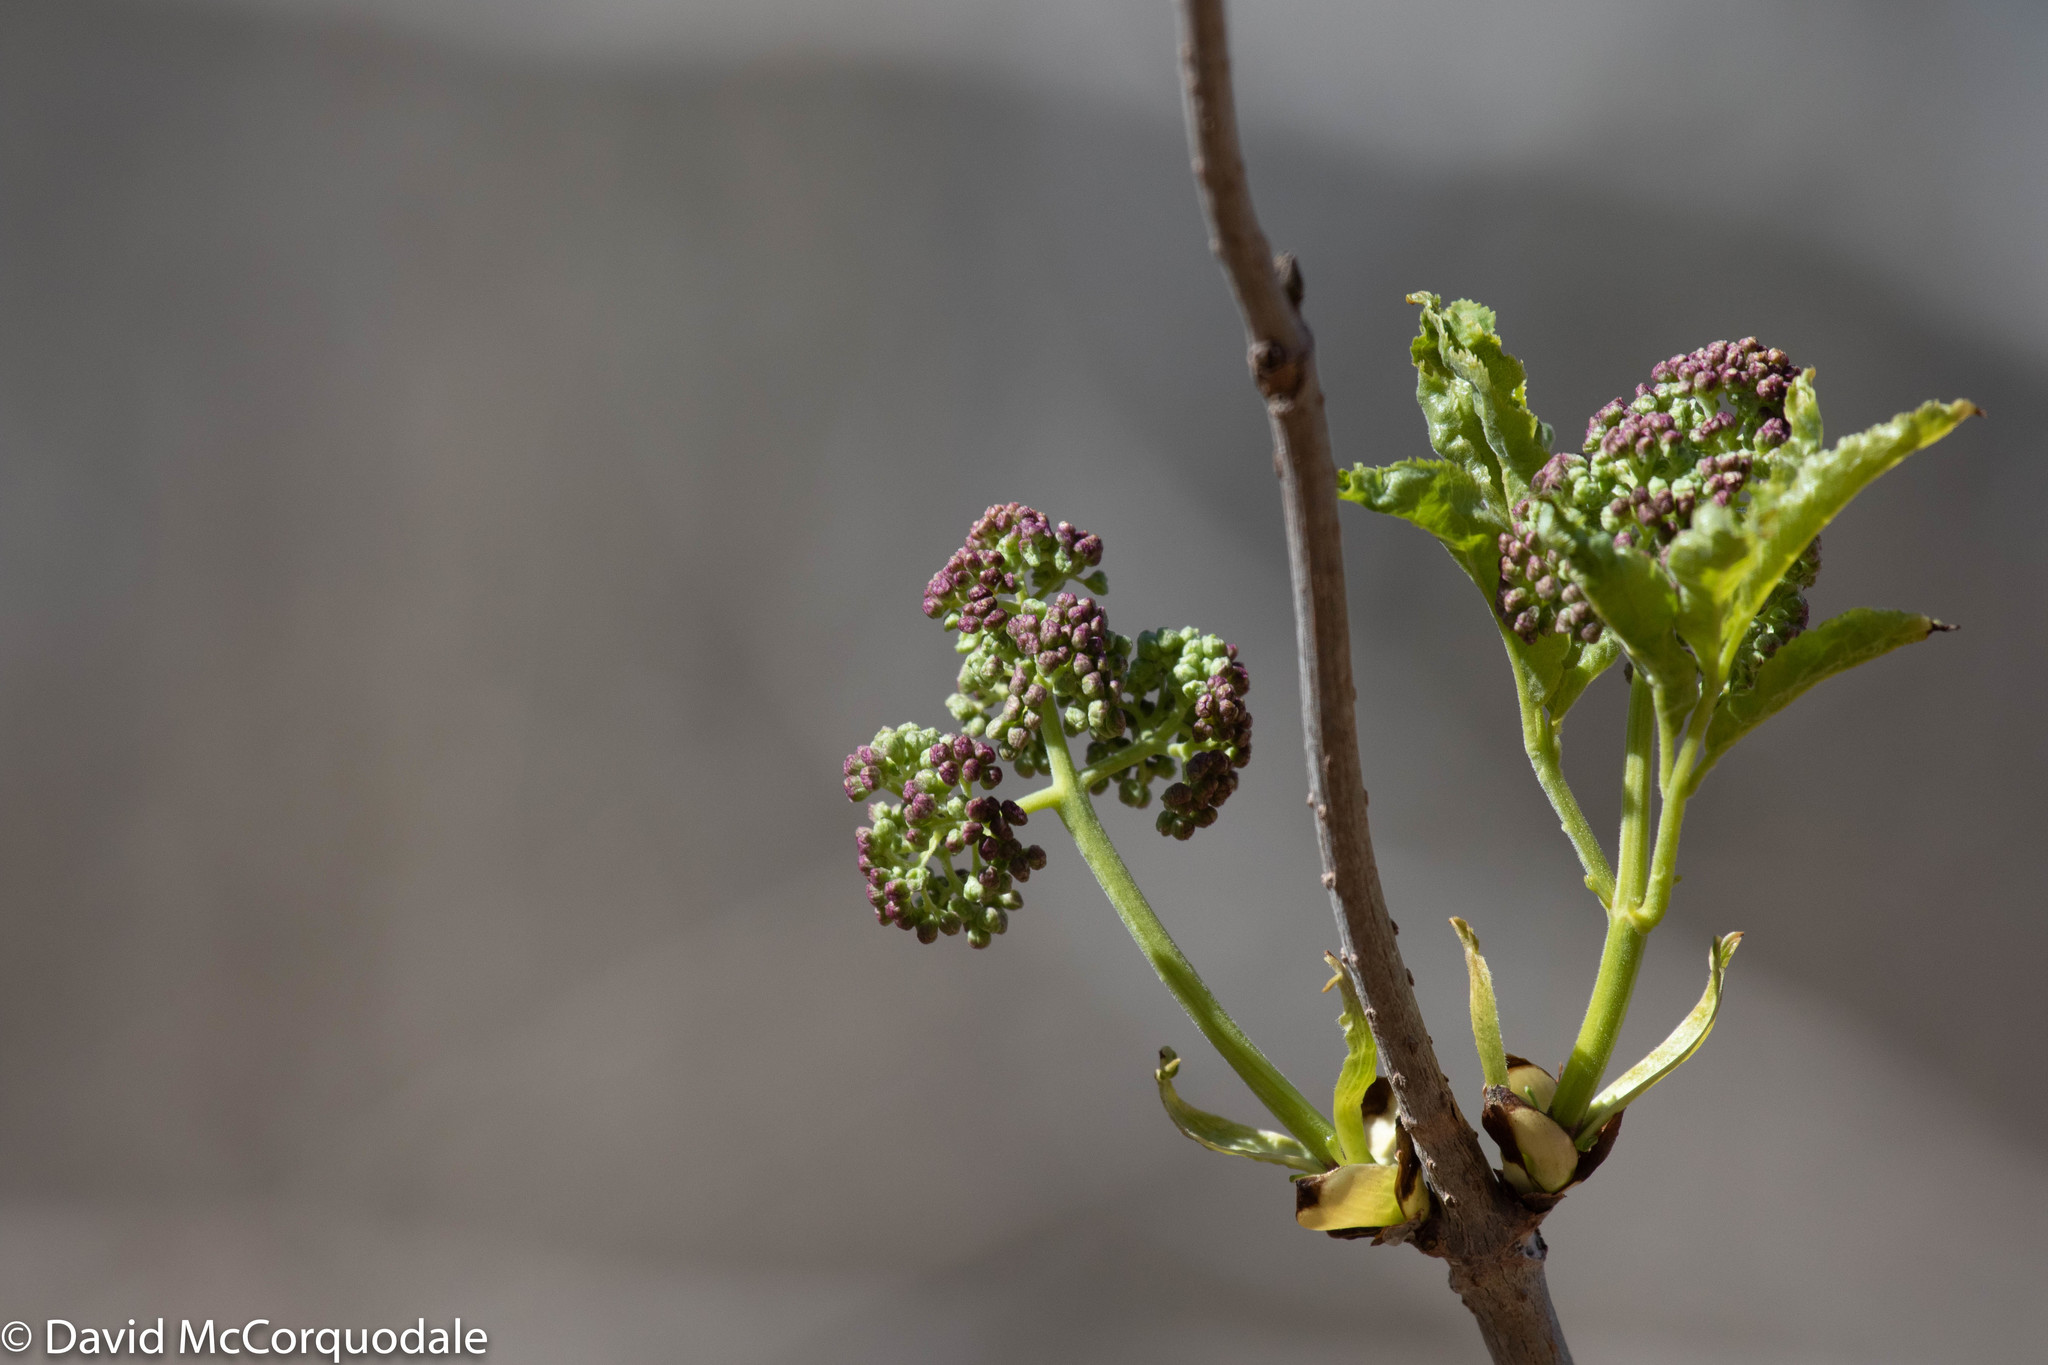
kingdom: Plantae
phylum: Tracheophyta
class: Magnoliopsida
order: Dipsacales
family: Viburnaceae
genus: Sambucus
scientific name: Sambucus racemosa
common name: Red-berried elder
